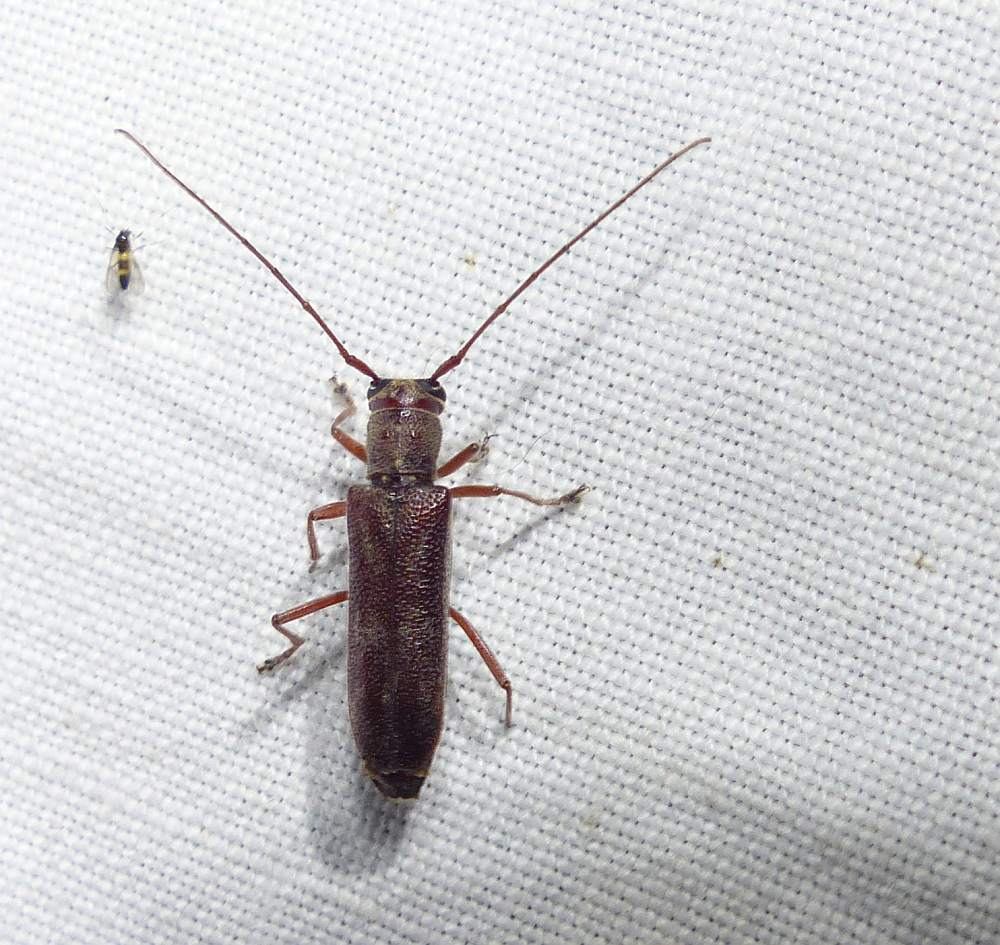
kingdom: Animalia
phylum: Arthropoda
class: Insecta
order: Coleoptera
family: Cerambycidae
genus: Saperda
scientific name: Saperda discoidea
